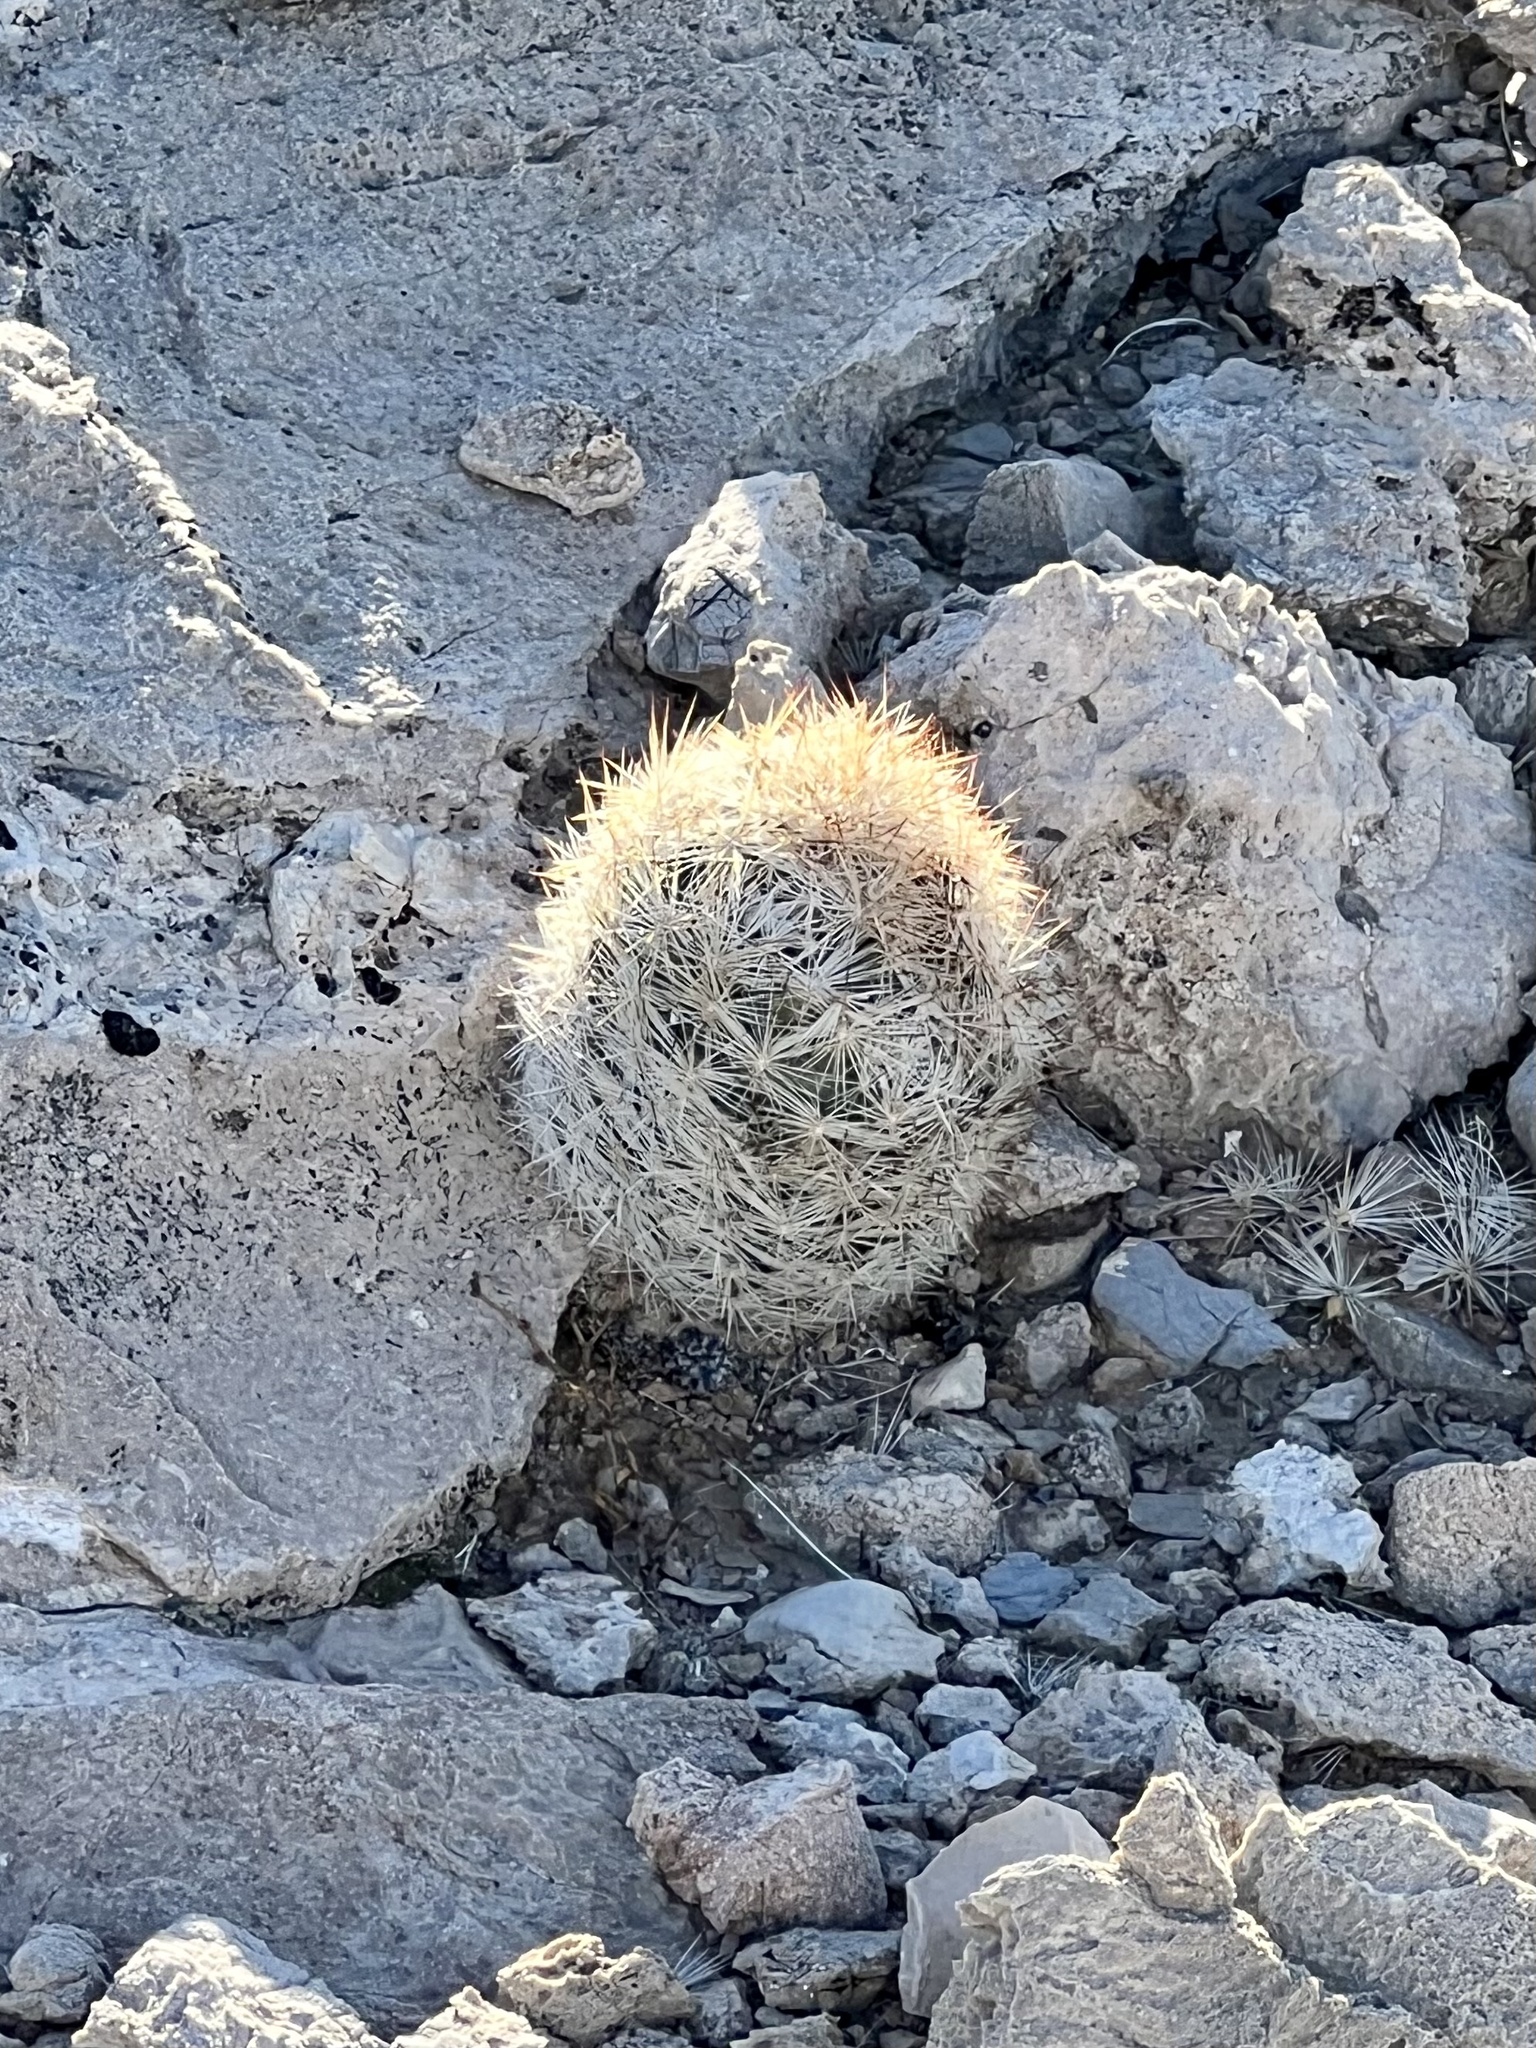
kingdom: Plantae
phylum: Tracheophyta
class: Magnoliopsida
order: Caryophyllales
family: Cactaceae
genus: Pelecyphora
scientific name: Pelecyphora dasyacantha
